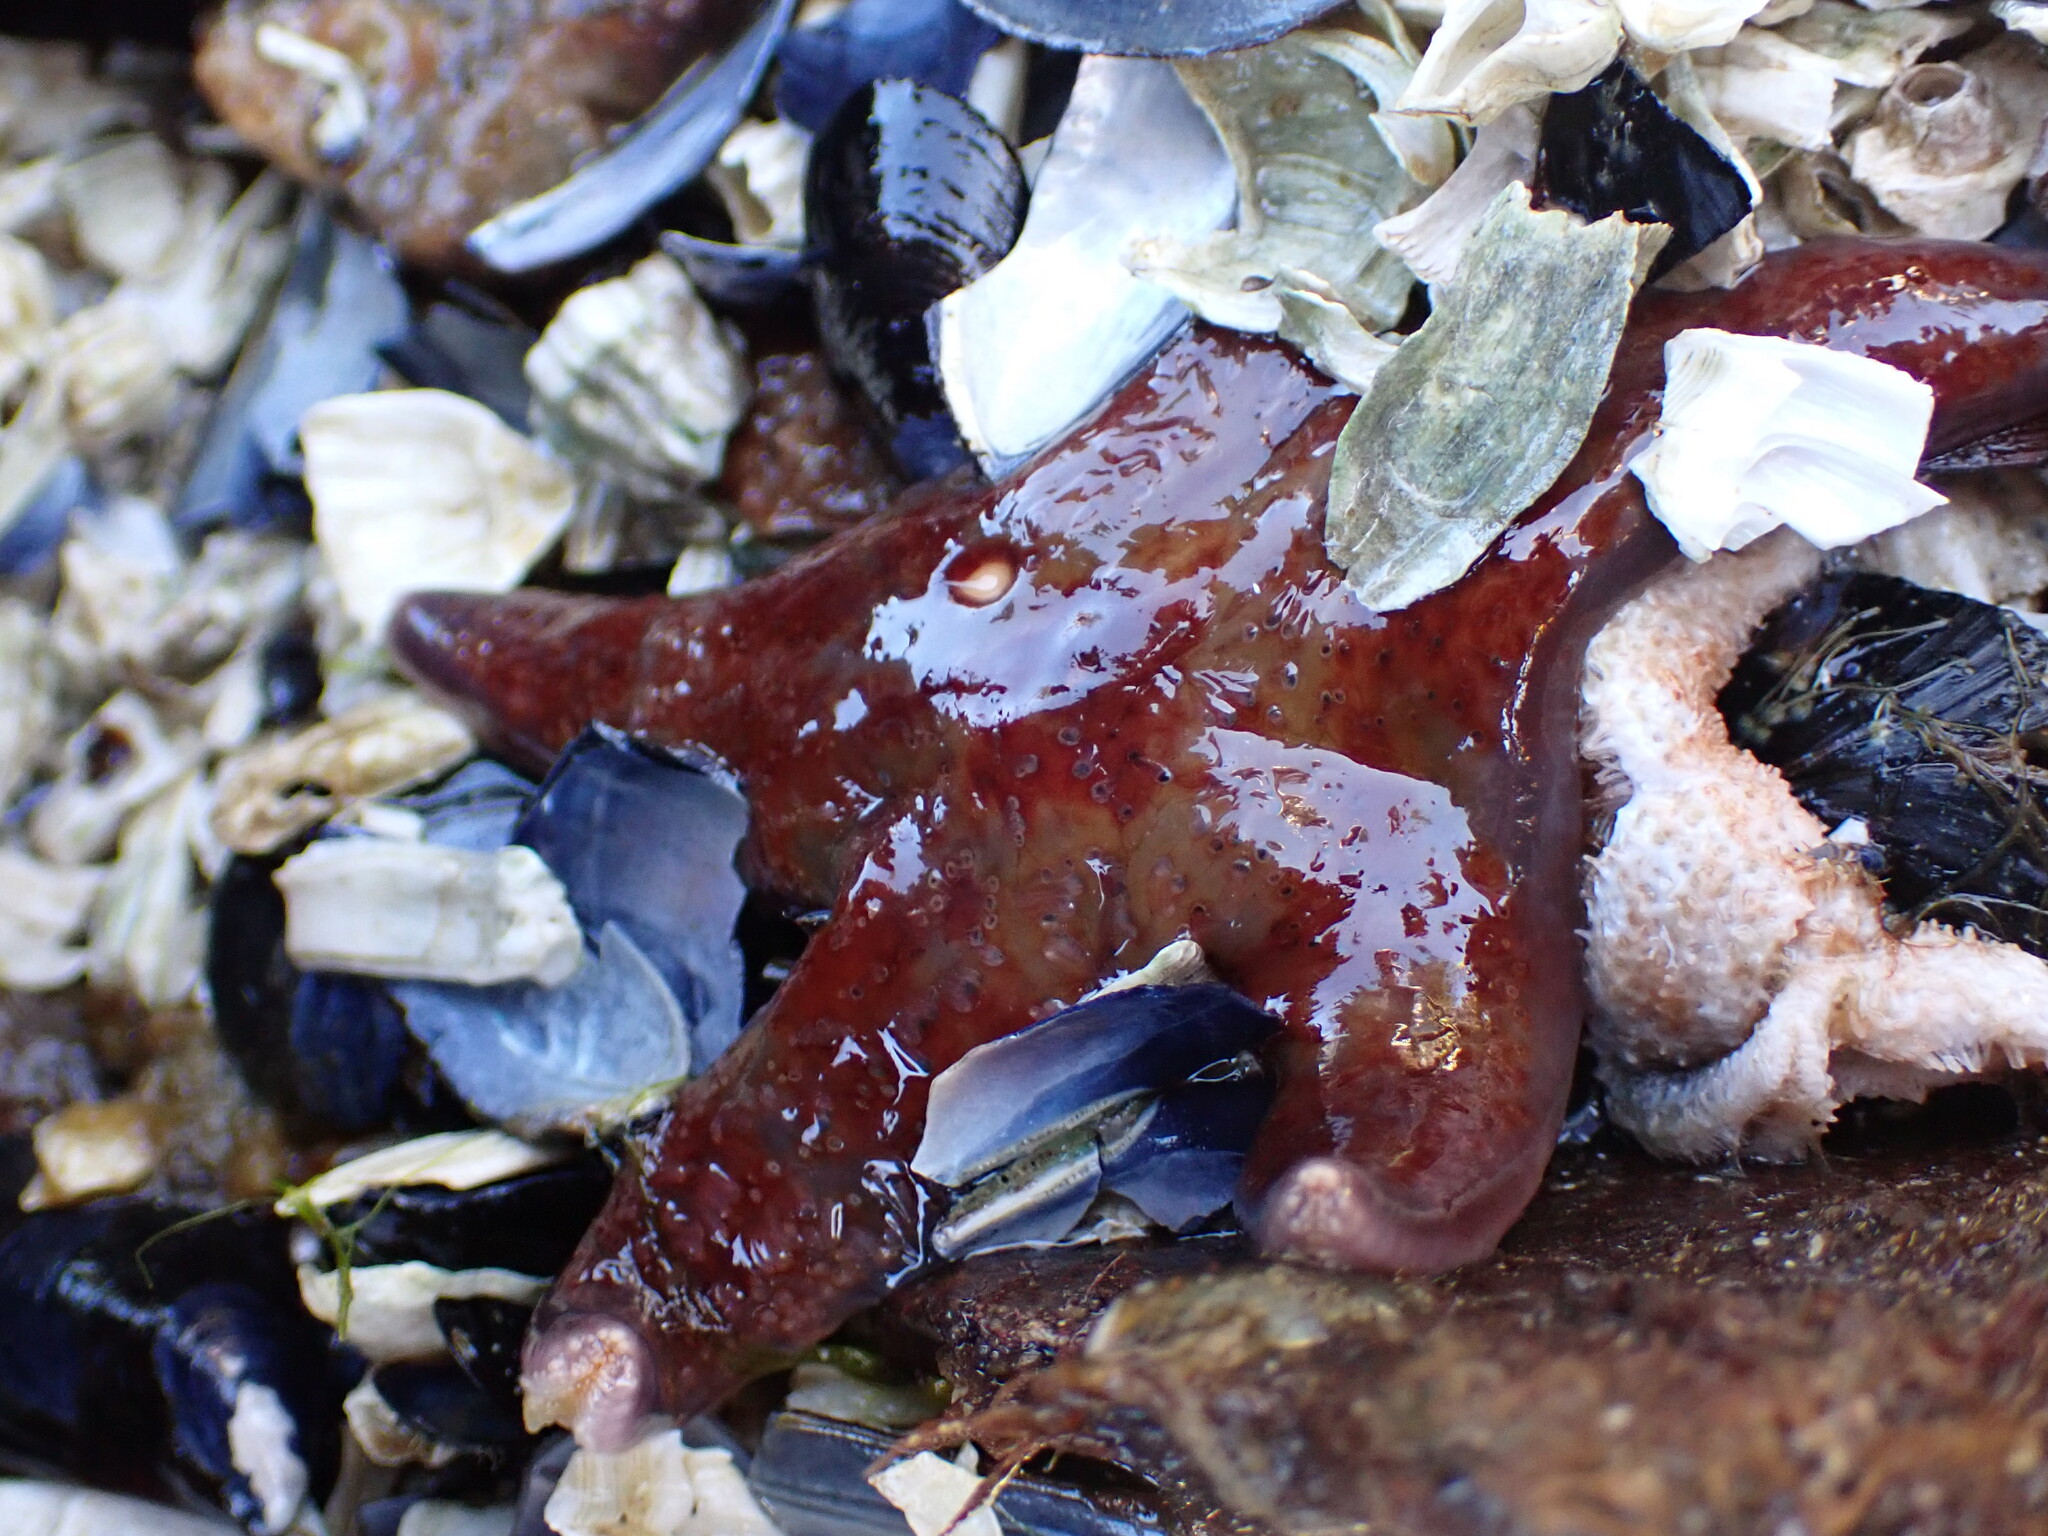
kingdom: Animalia
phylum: Echinodermata
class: Asteroidea
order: Valvatida
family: Asteropseidae
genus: Dermasterias
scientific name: Dermasterias imbricata
